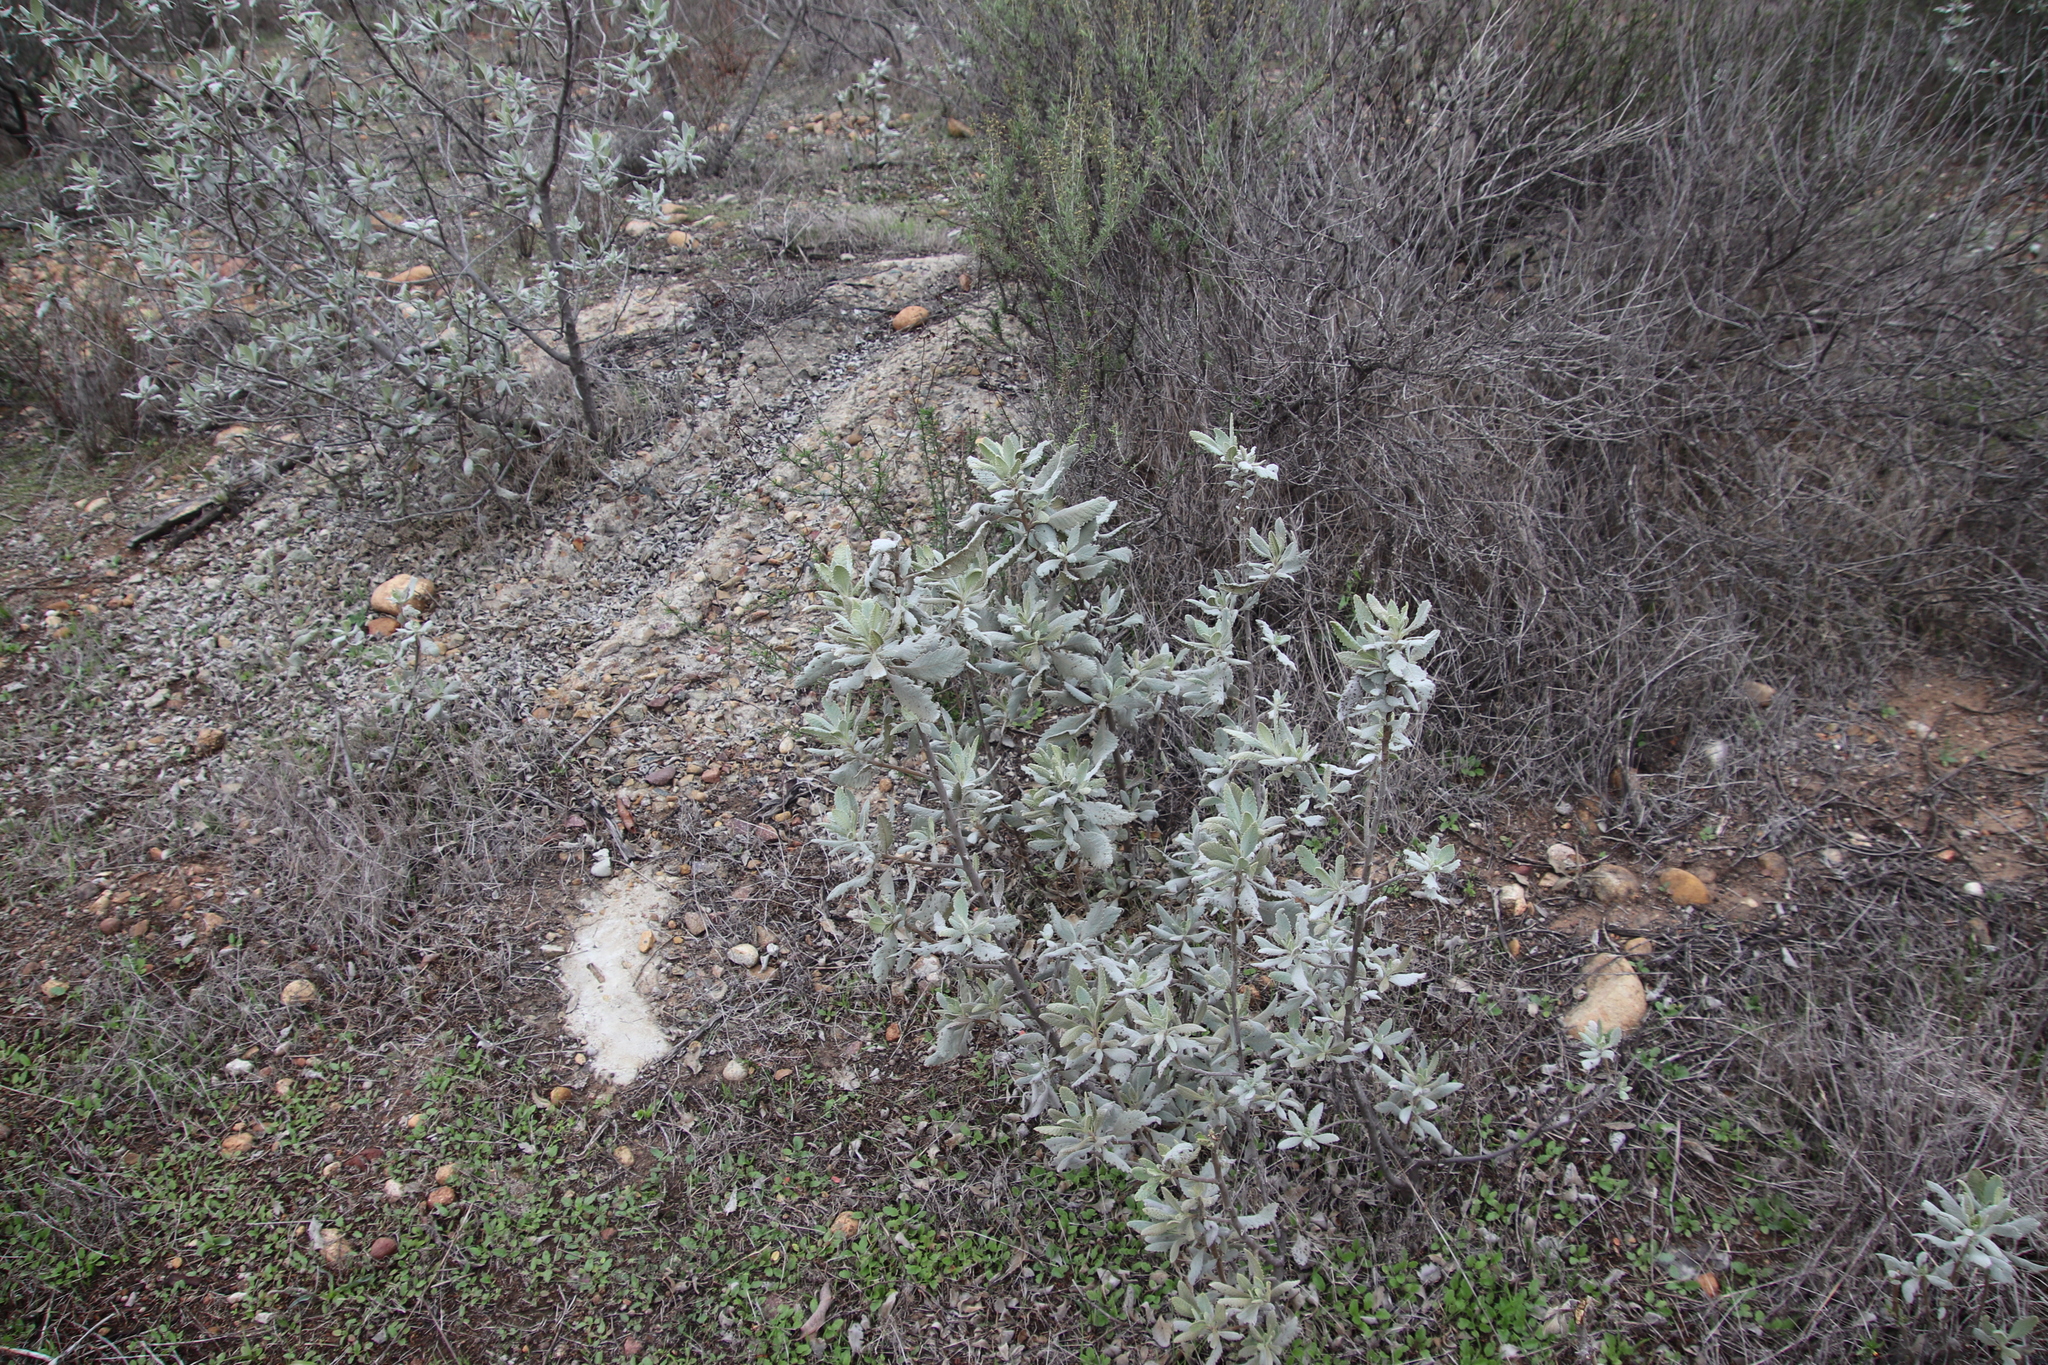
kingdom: Plantae
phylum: Tracheophyta
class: Magnoliopsida
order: Boraginales
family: Namaceae
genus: Eriodictyon
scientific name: Eriodictyon crassifolium
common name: Thick-leaf yerba-santa
